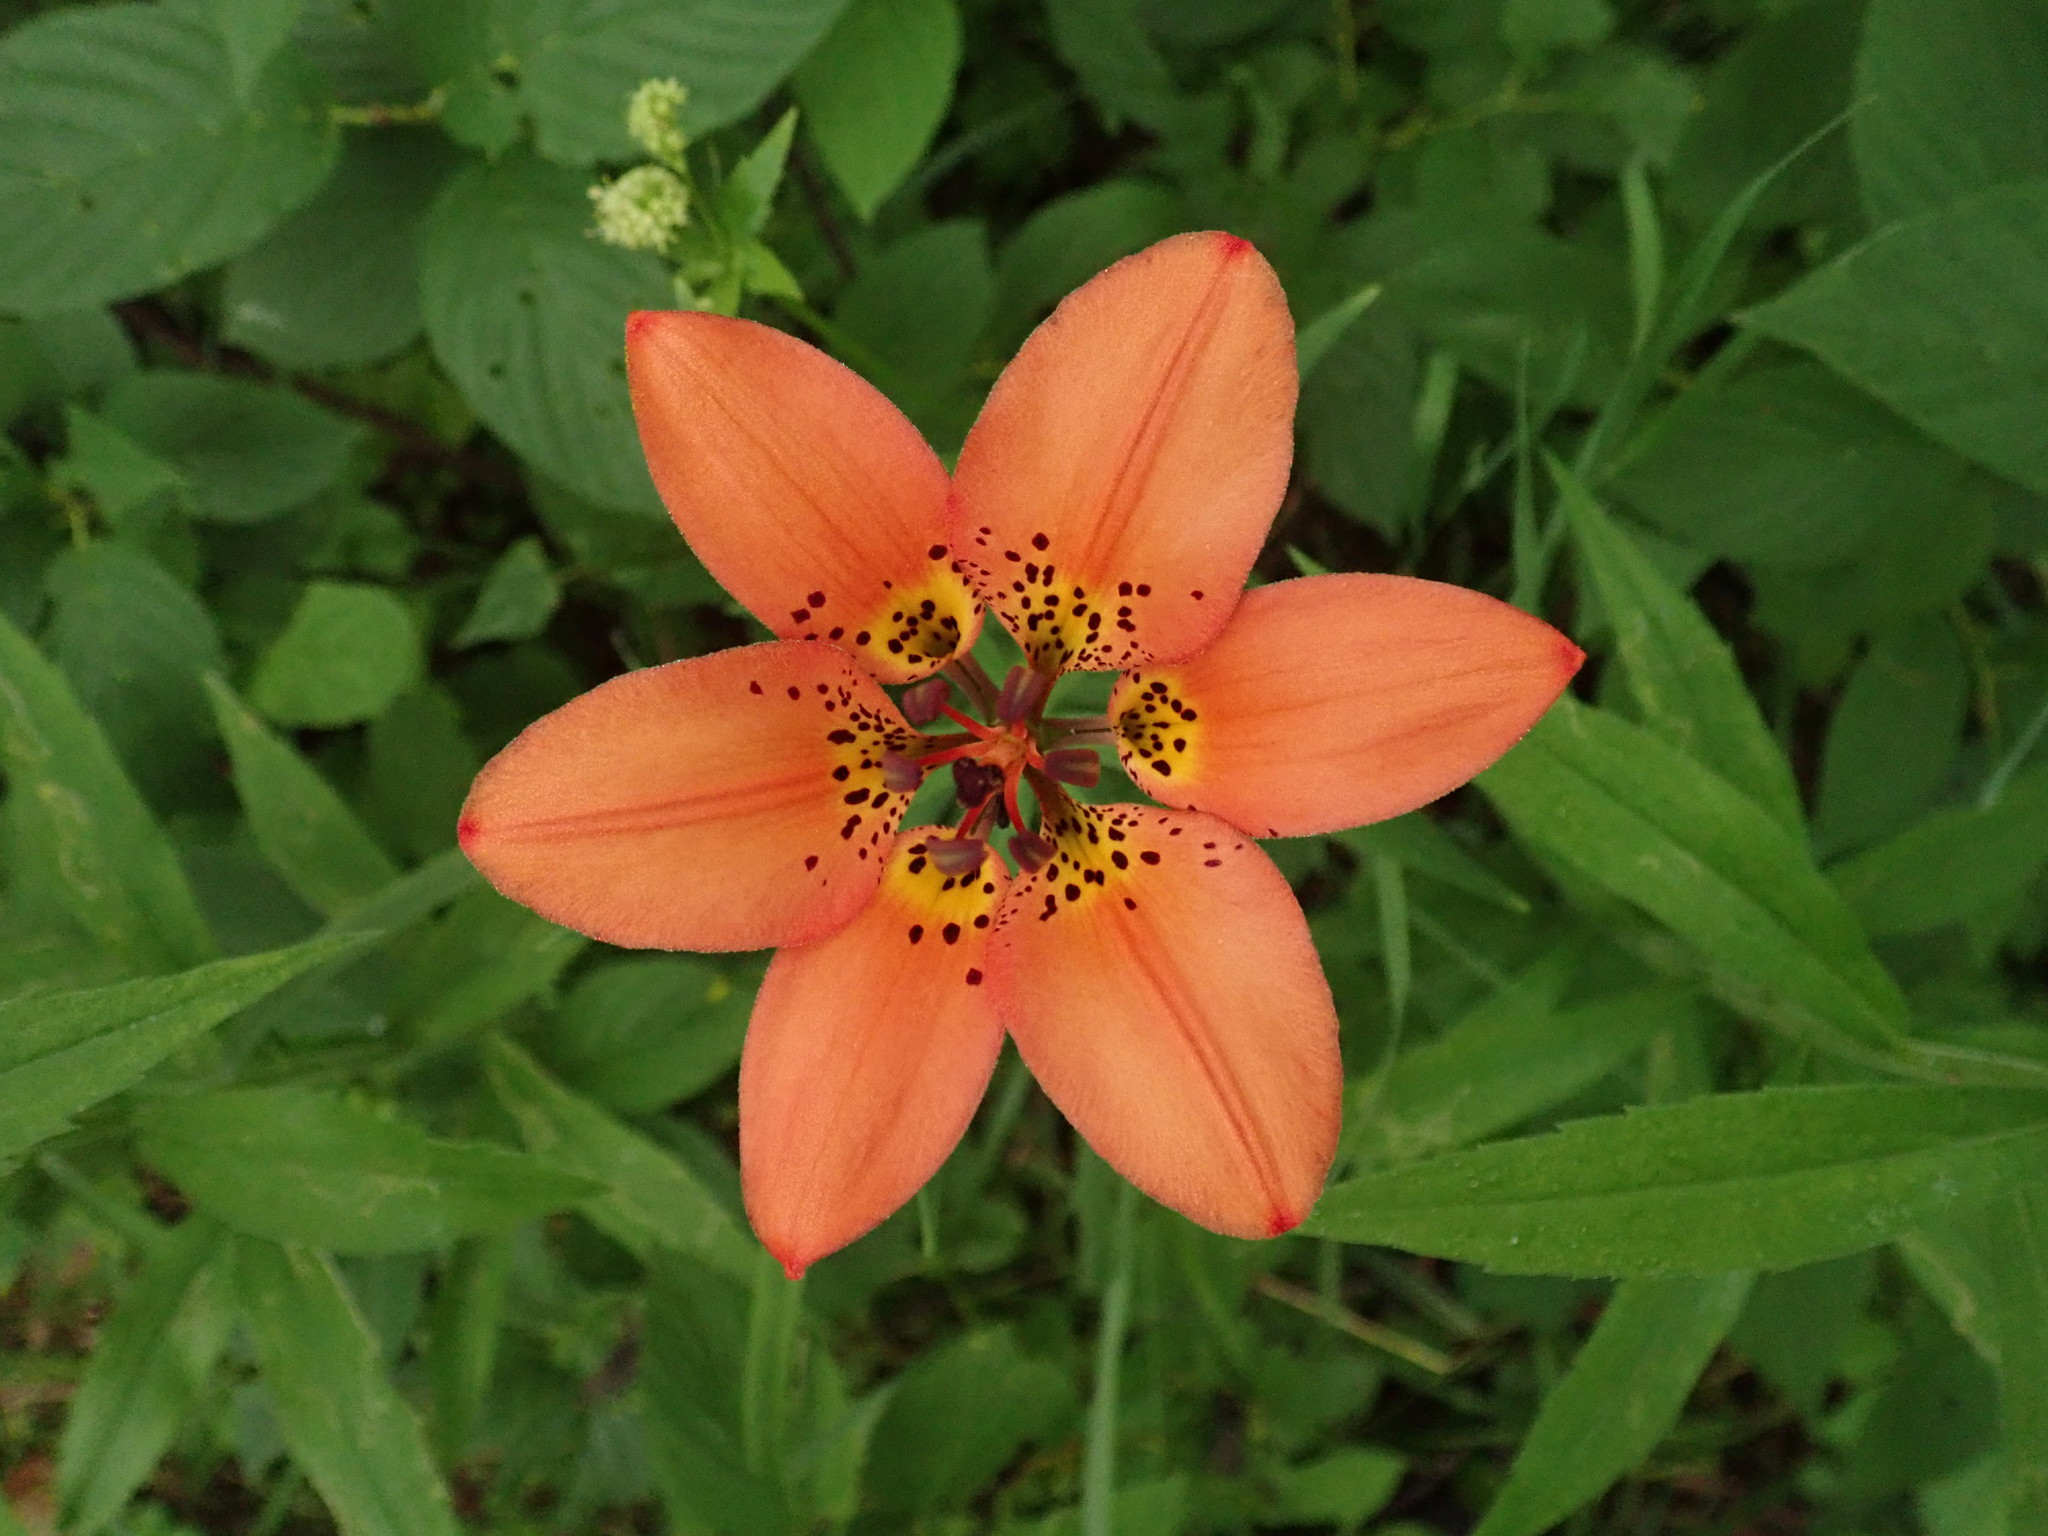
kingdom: Plantae
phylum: Tracheophyta
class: Liliopsida
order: Liliales
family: Liliaceae
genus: Lilium
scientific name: Lilium philadelphicum
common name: Red lily
